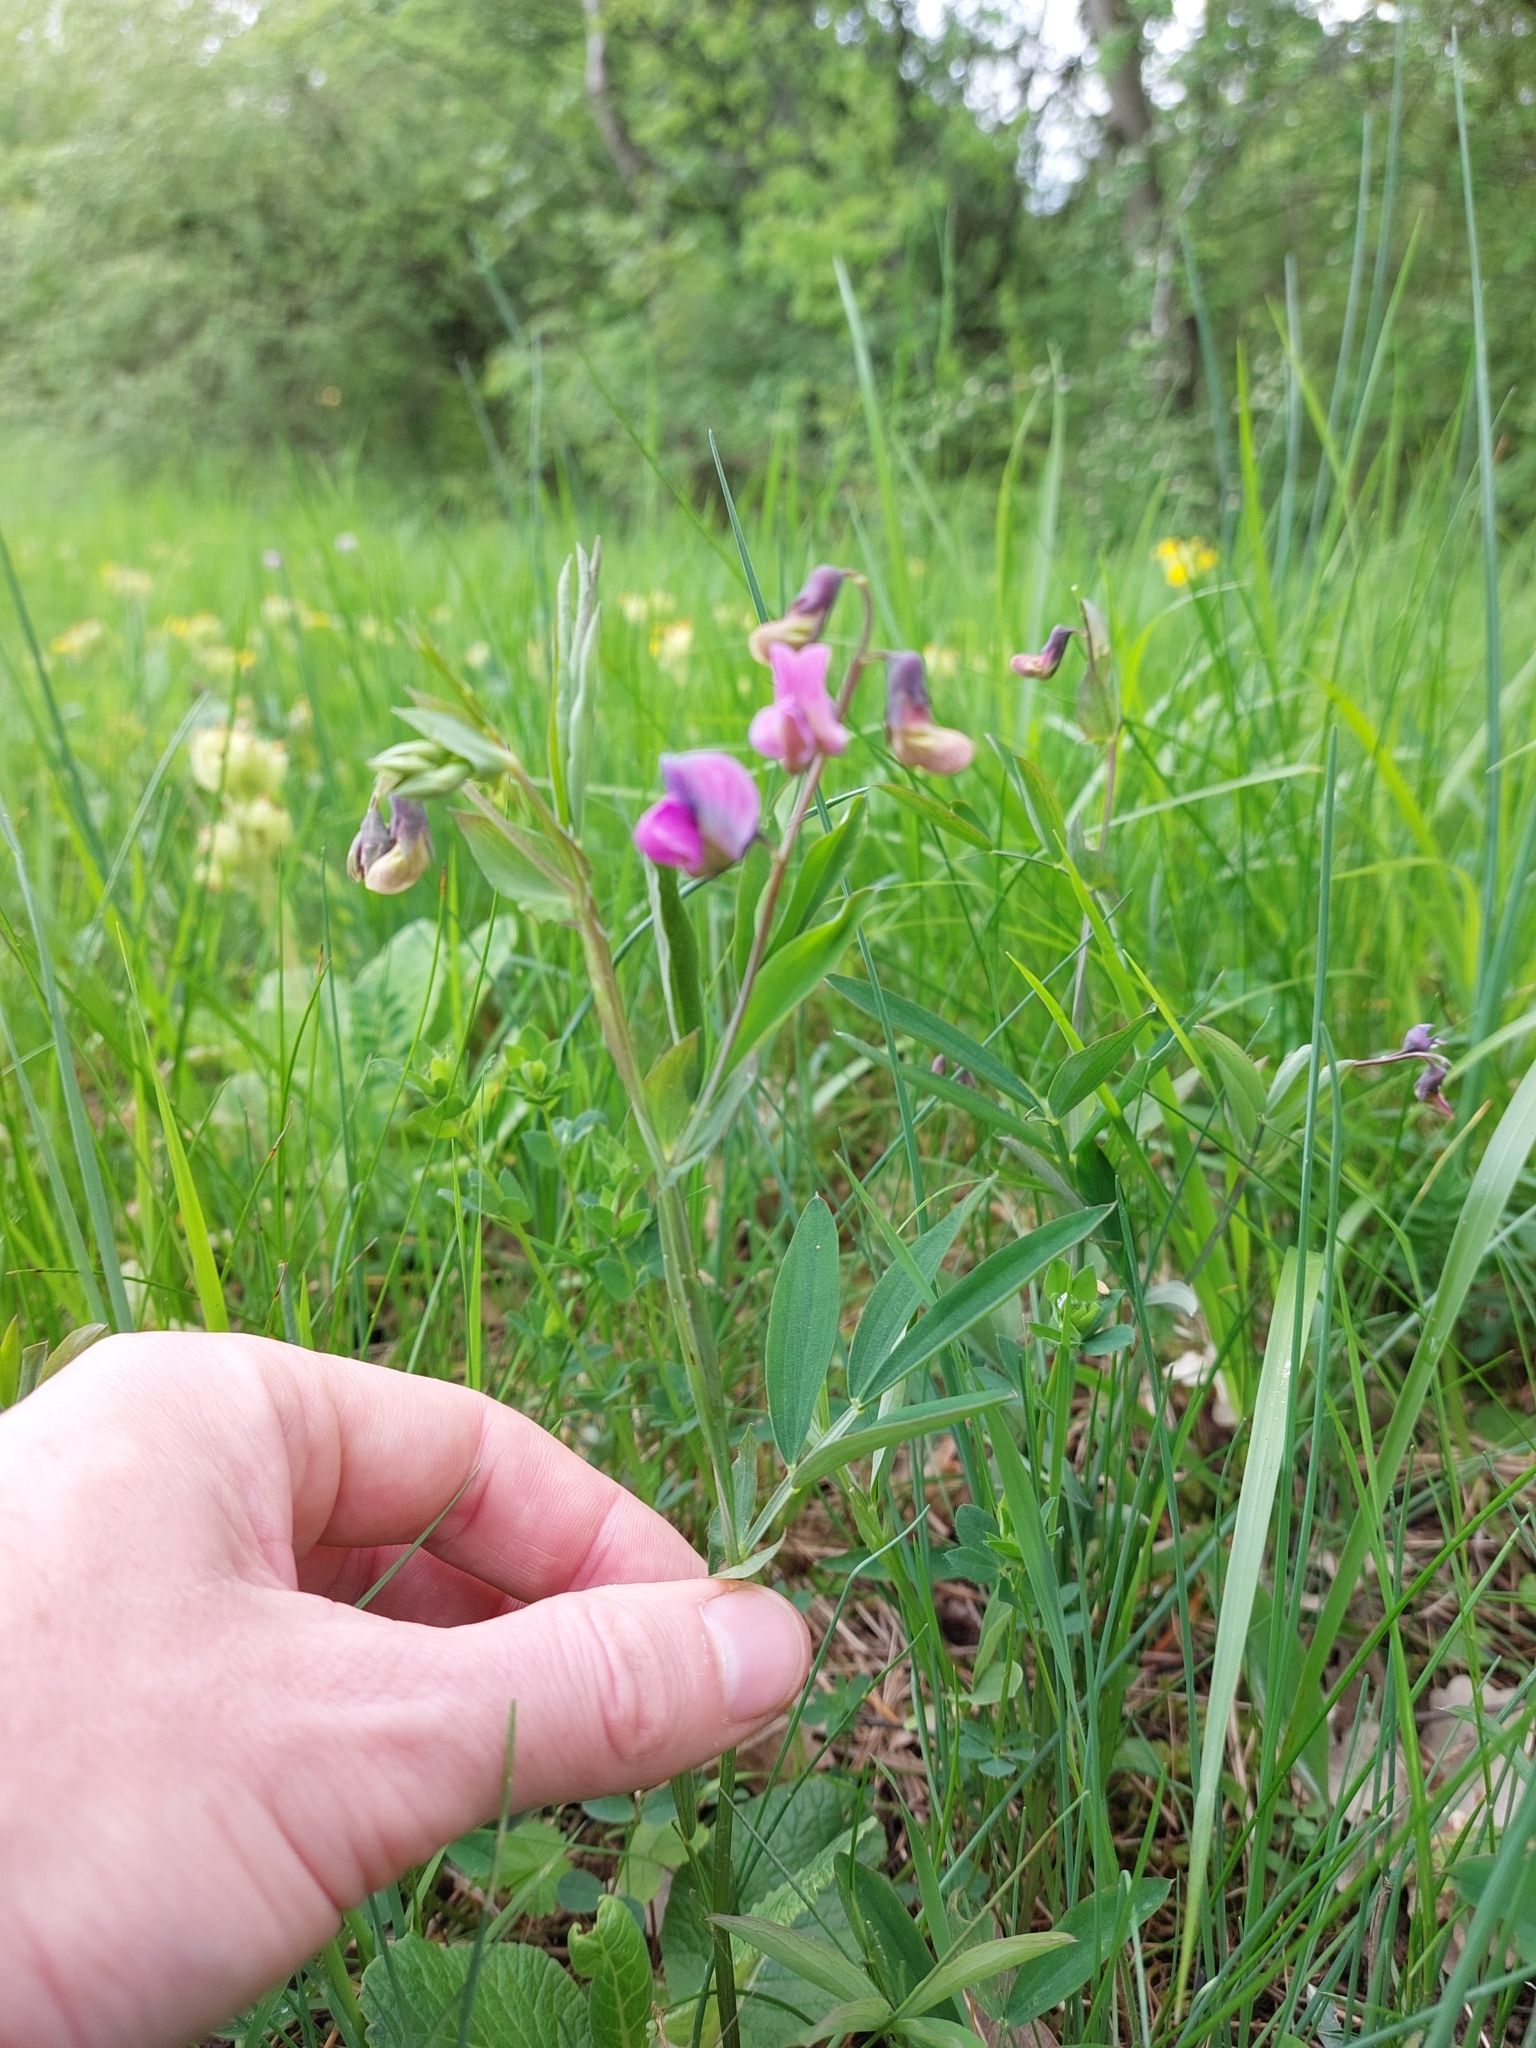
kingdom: Plantae
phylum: Tracheophyta
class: Magnoliopsida
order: Fabales
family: Fabaceae
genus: Lathyrus
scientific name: Lathyrus linifolius
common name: Bitter-vetch
